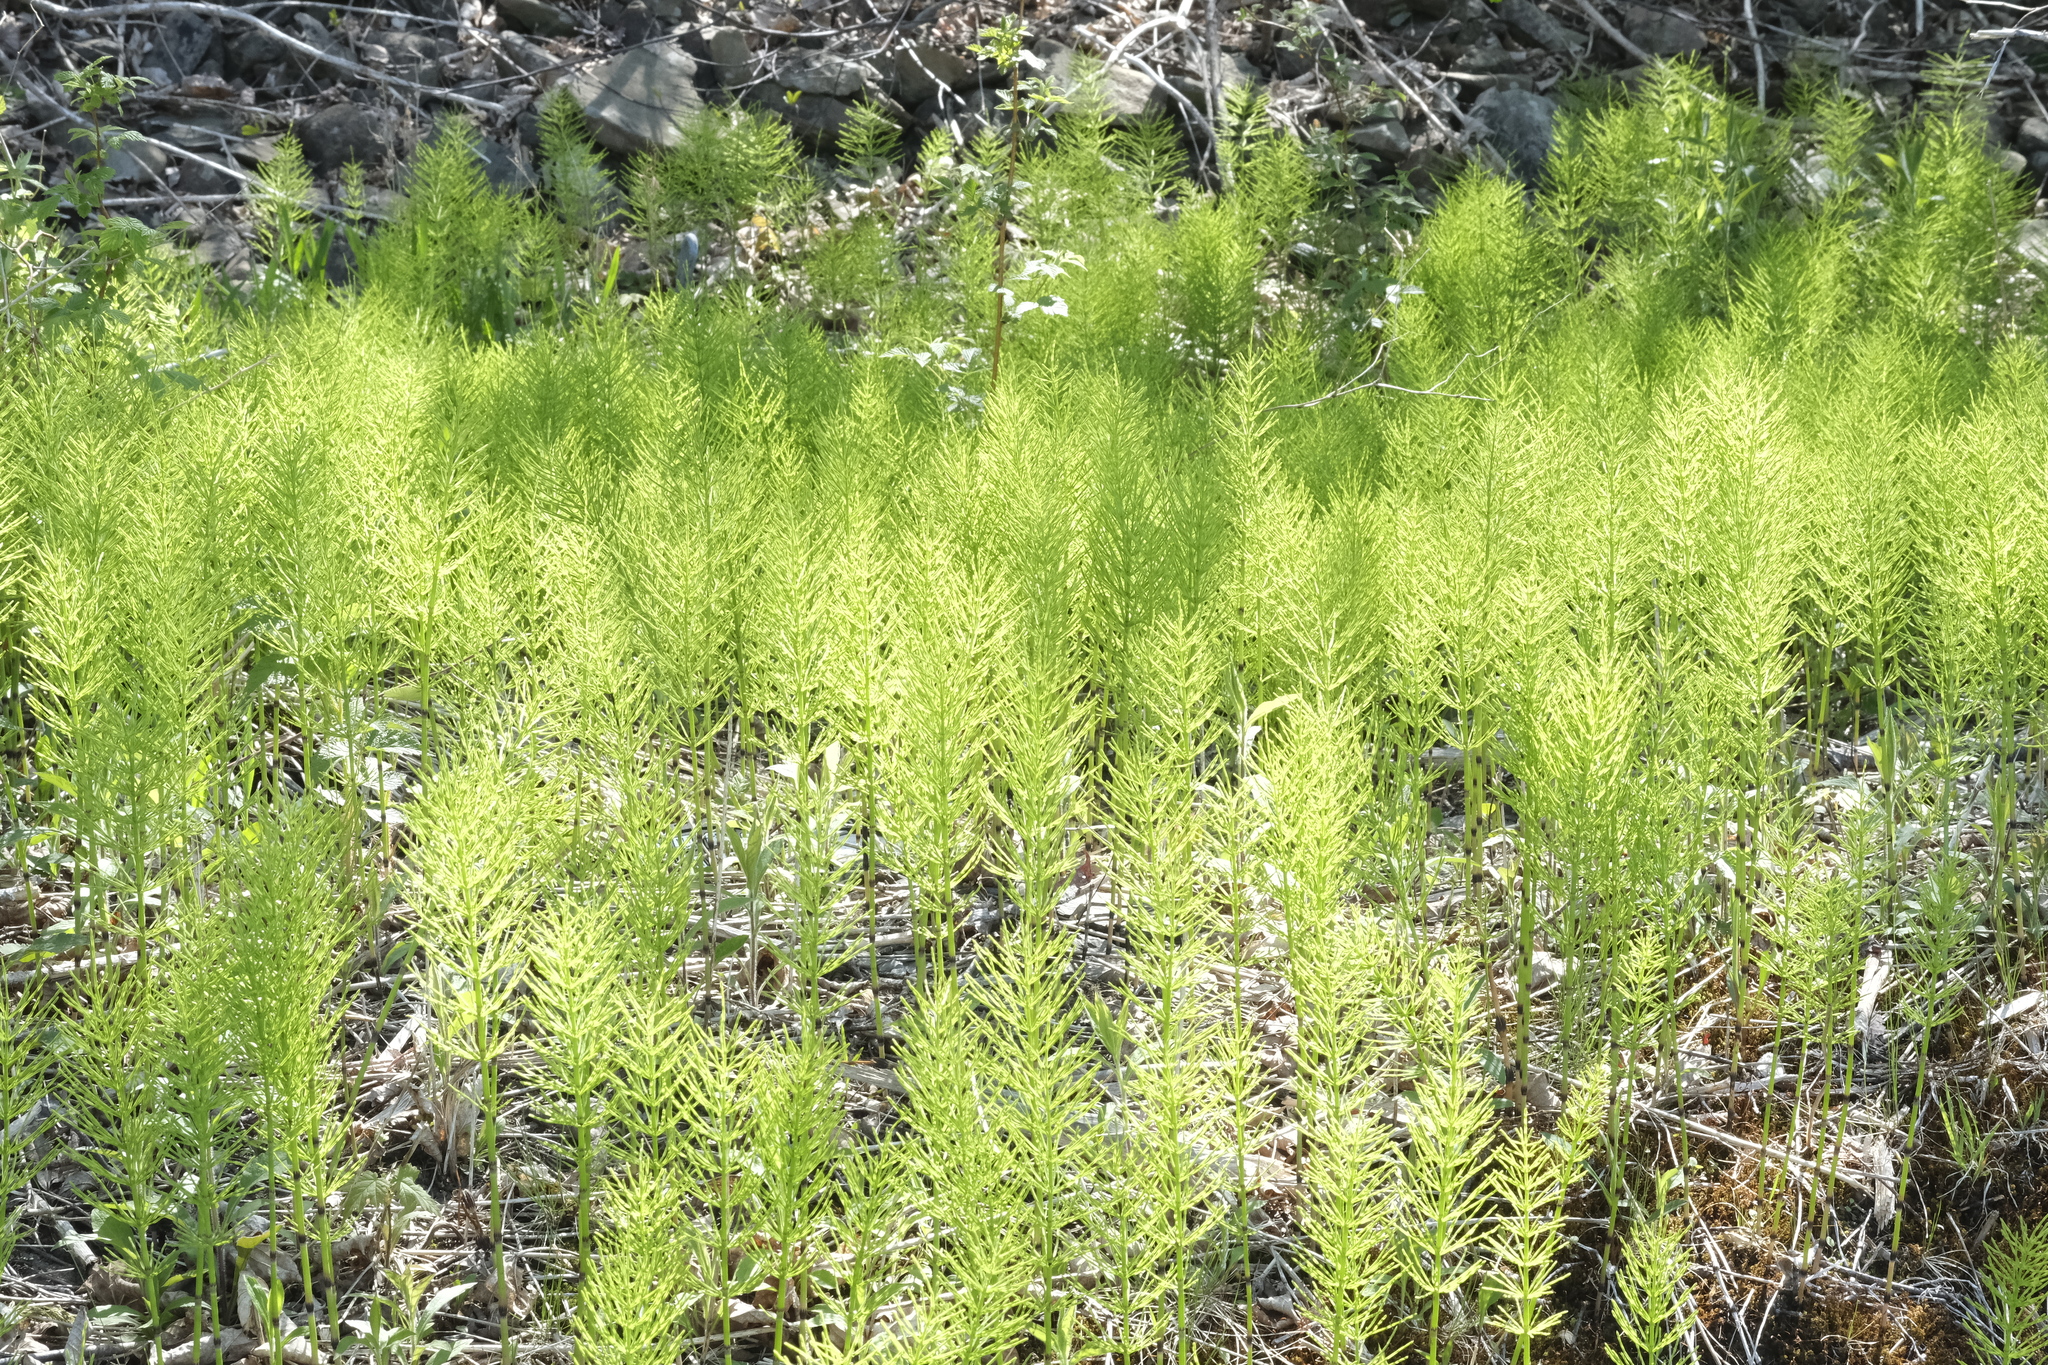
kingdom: Plantae
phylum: Tracheophyta
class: Polypodiopsida
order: Equisetales
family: Equisetaceae
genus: Equisetum
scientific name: Equisetum arvense
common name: Field horsetail
